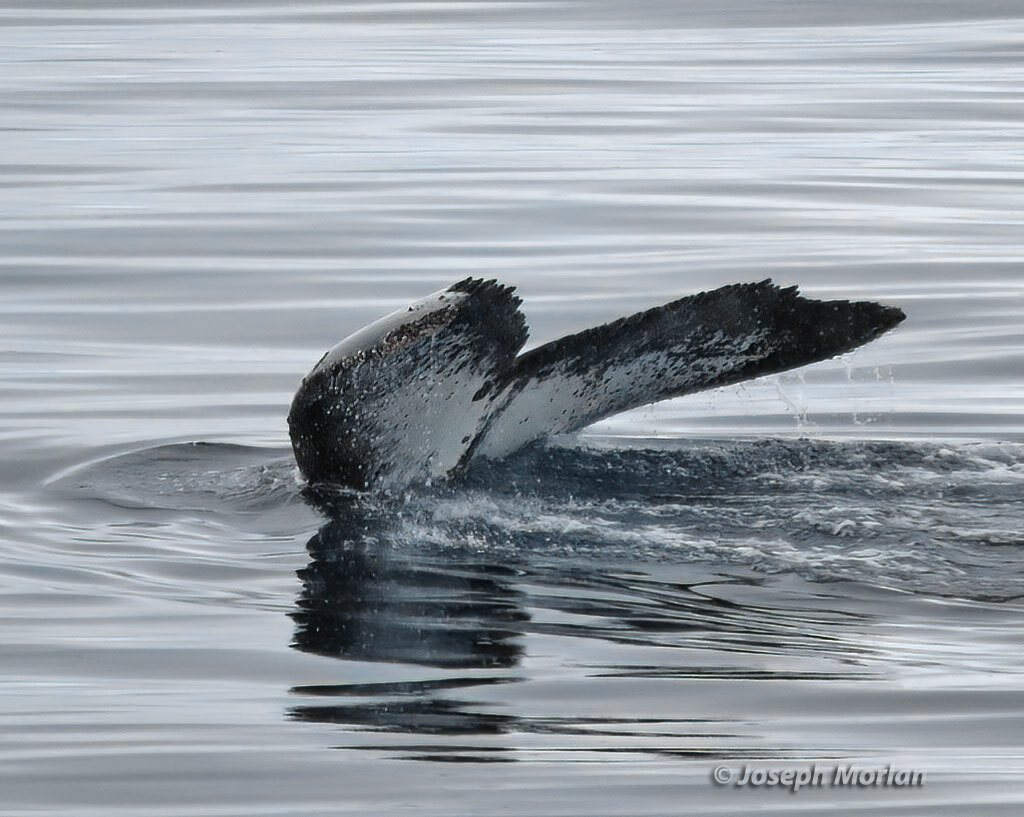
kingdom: Animalia
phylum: Chordata
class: Mammalia
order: Cetacea
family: Balaenopteridae
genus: Megaptera
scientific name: Megaptera novaeangliae
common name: Humpback whale
